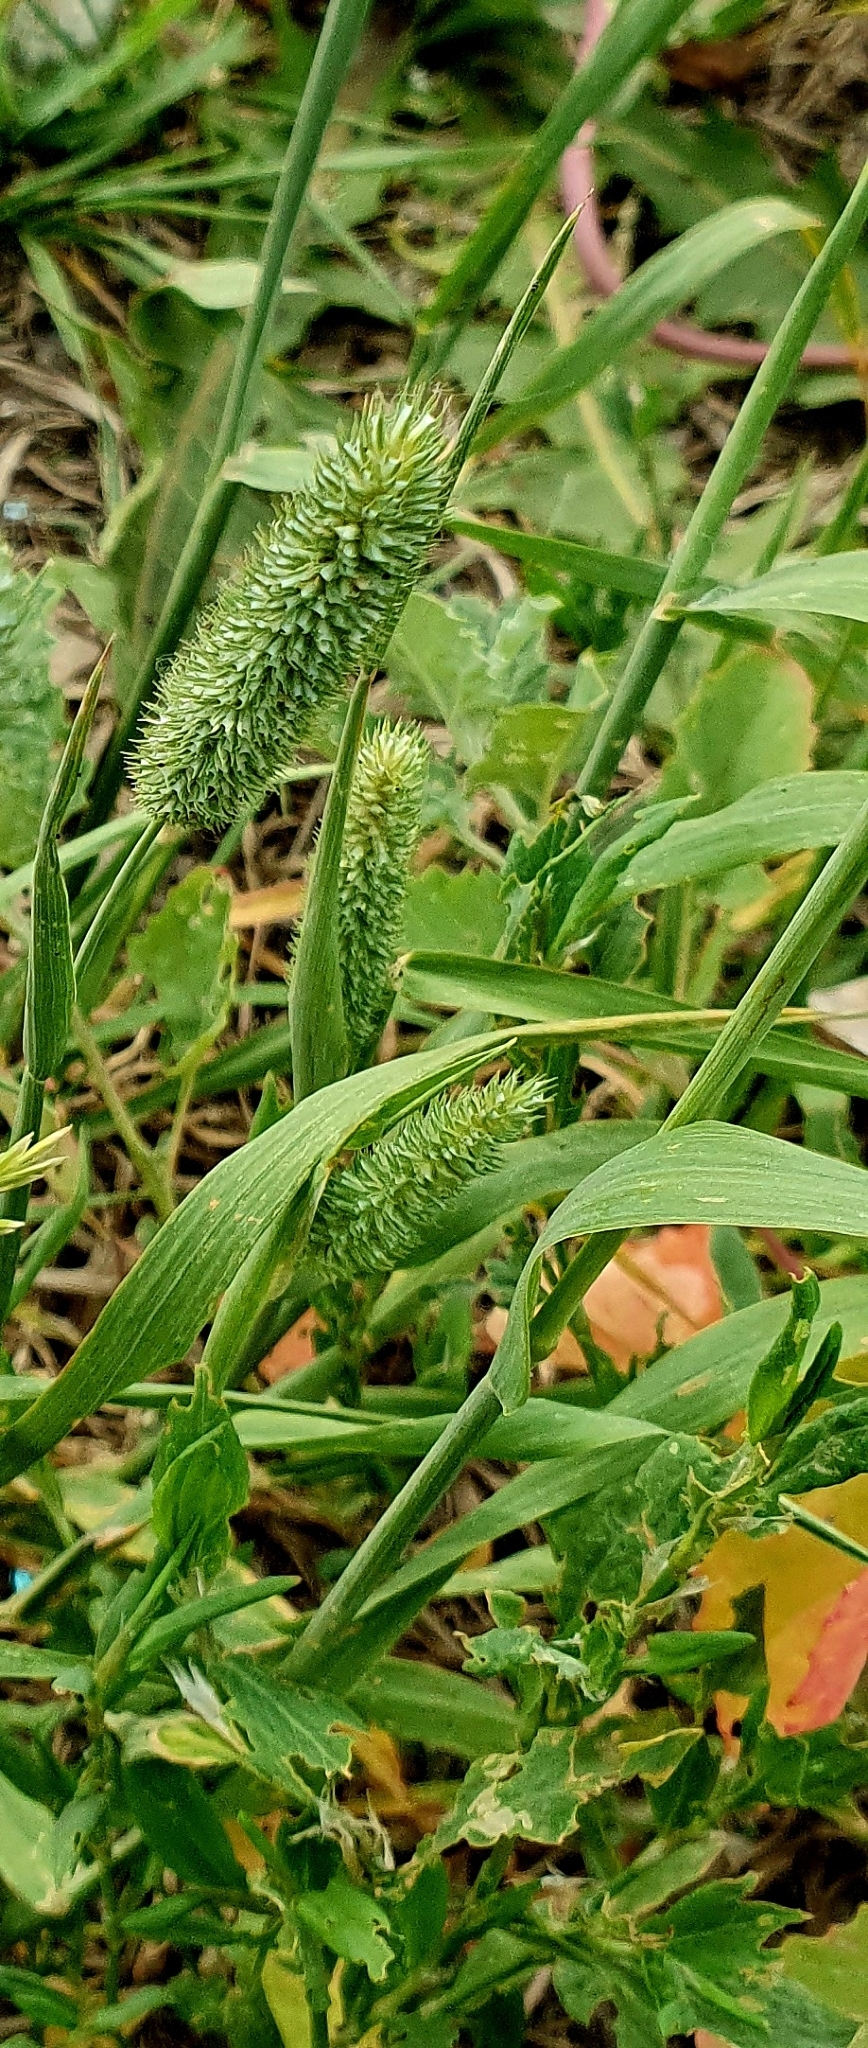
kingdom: Plantae
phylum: Tracheophyta
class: Liliopsida
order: Poales
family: Poaceae
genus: Phleum
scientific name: Phleum pratense
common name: Timothy grass
